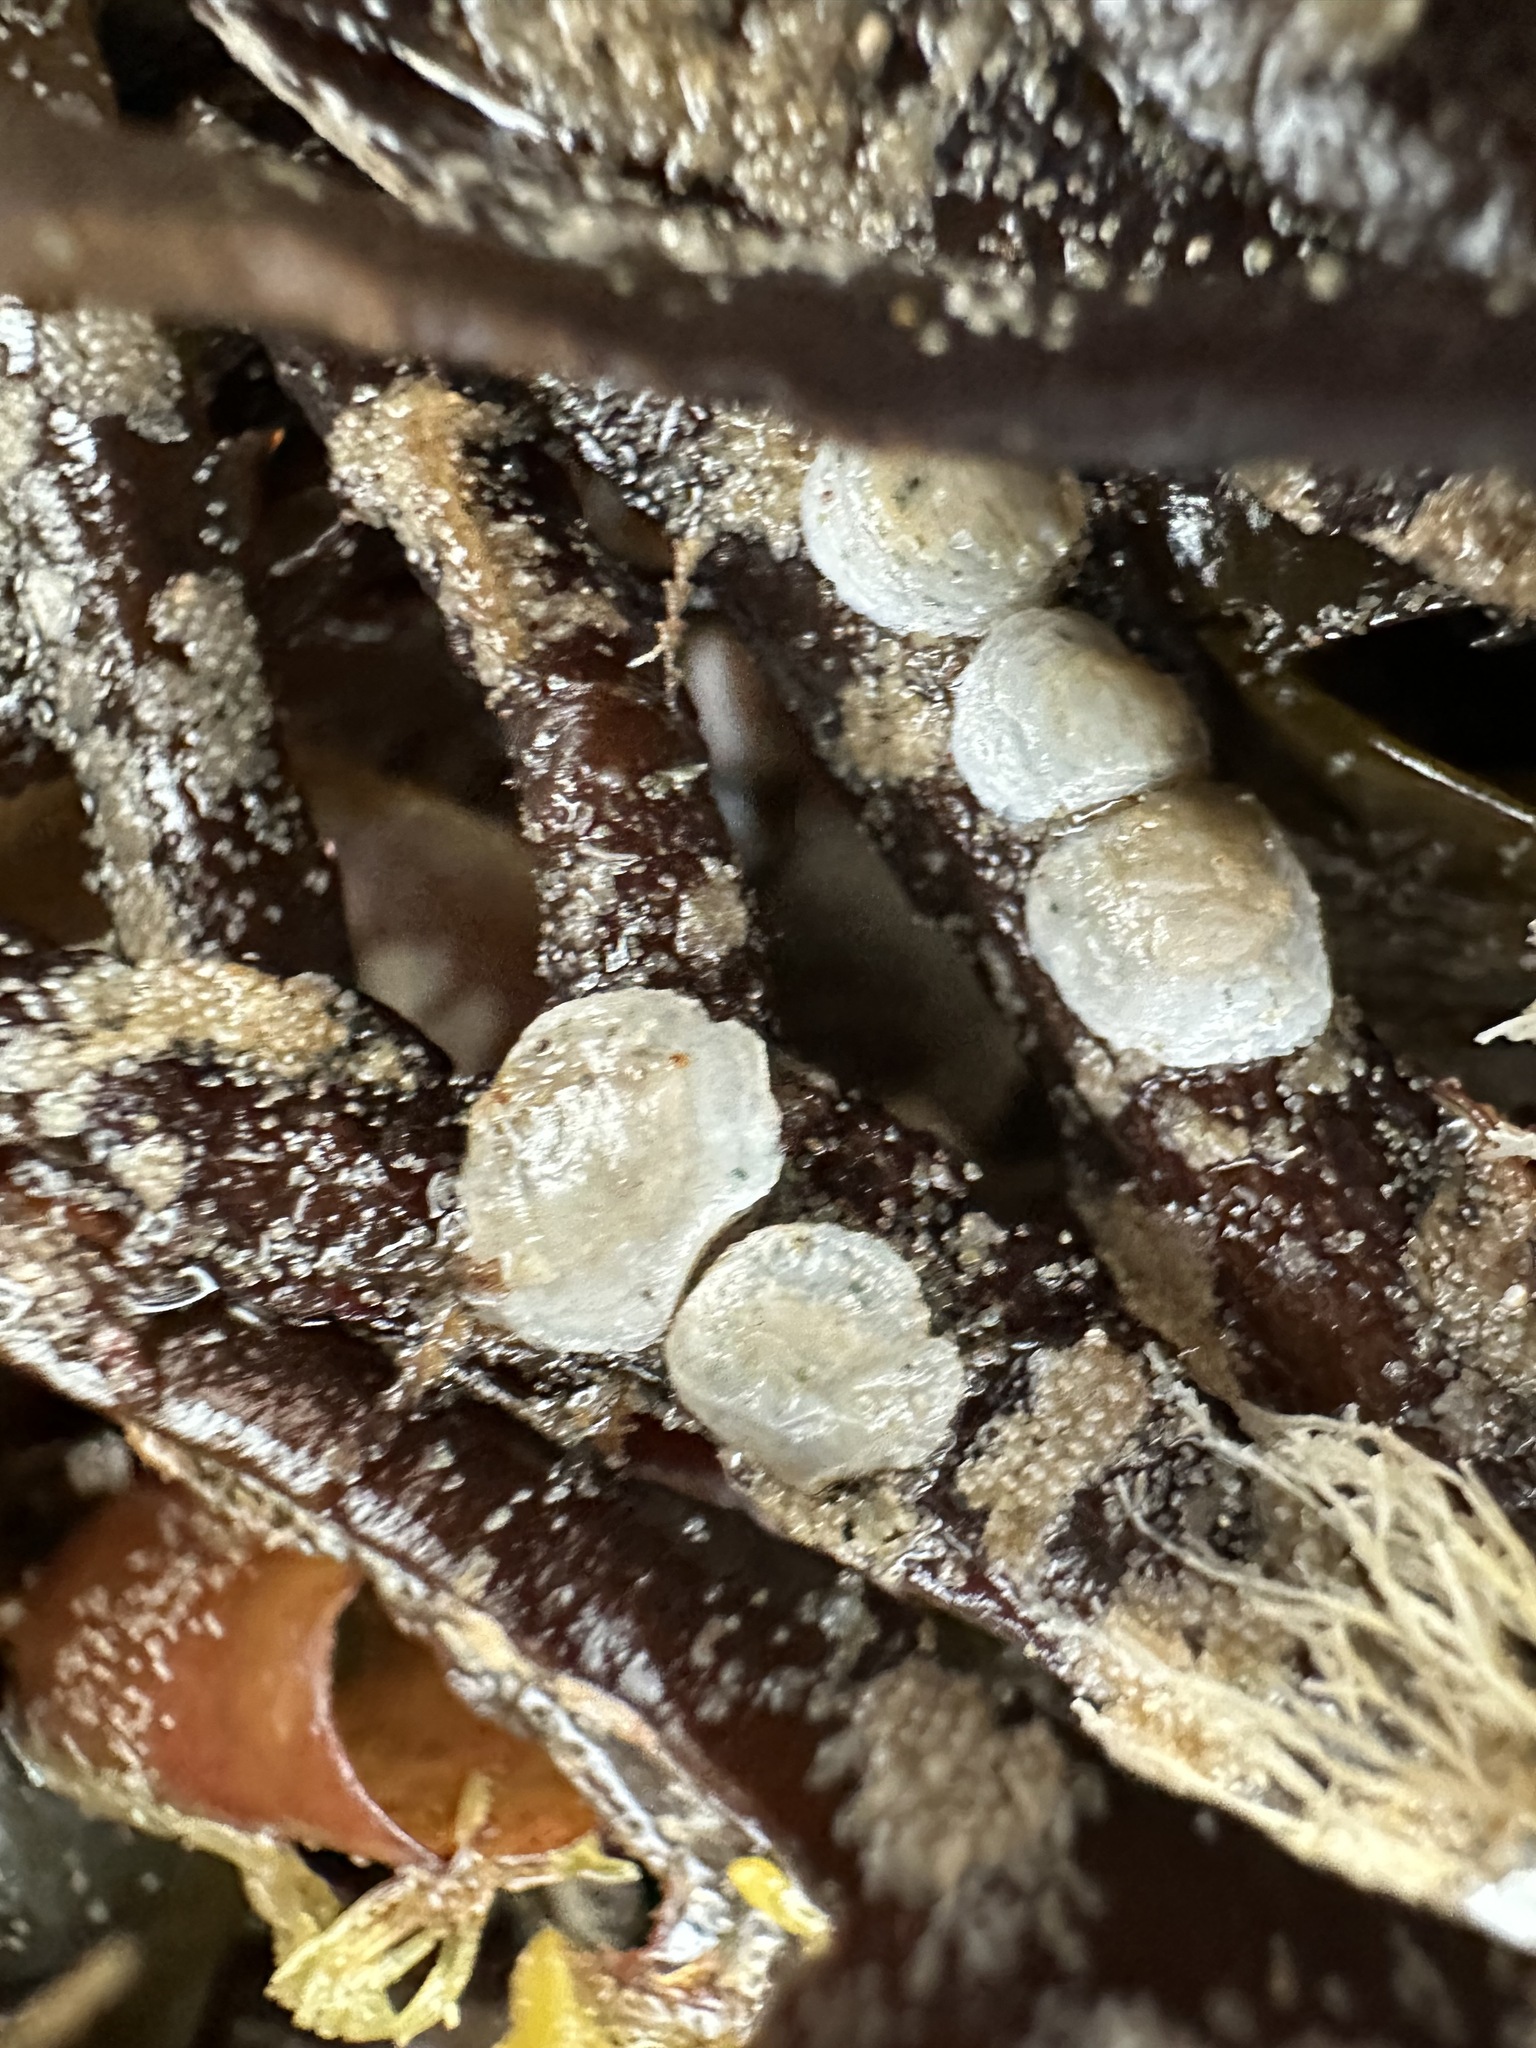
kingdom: Animalia
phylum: Mollusca
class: Bivalvia
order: Pectinida
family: Anomiidae
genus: Heteranomia
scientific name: Heteranomia squamula
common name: Prickly jingle
